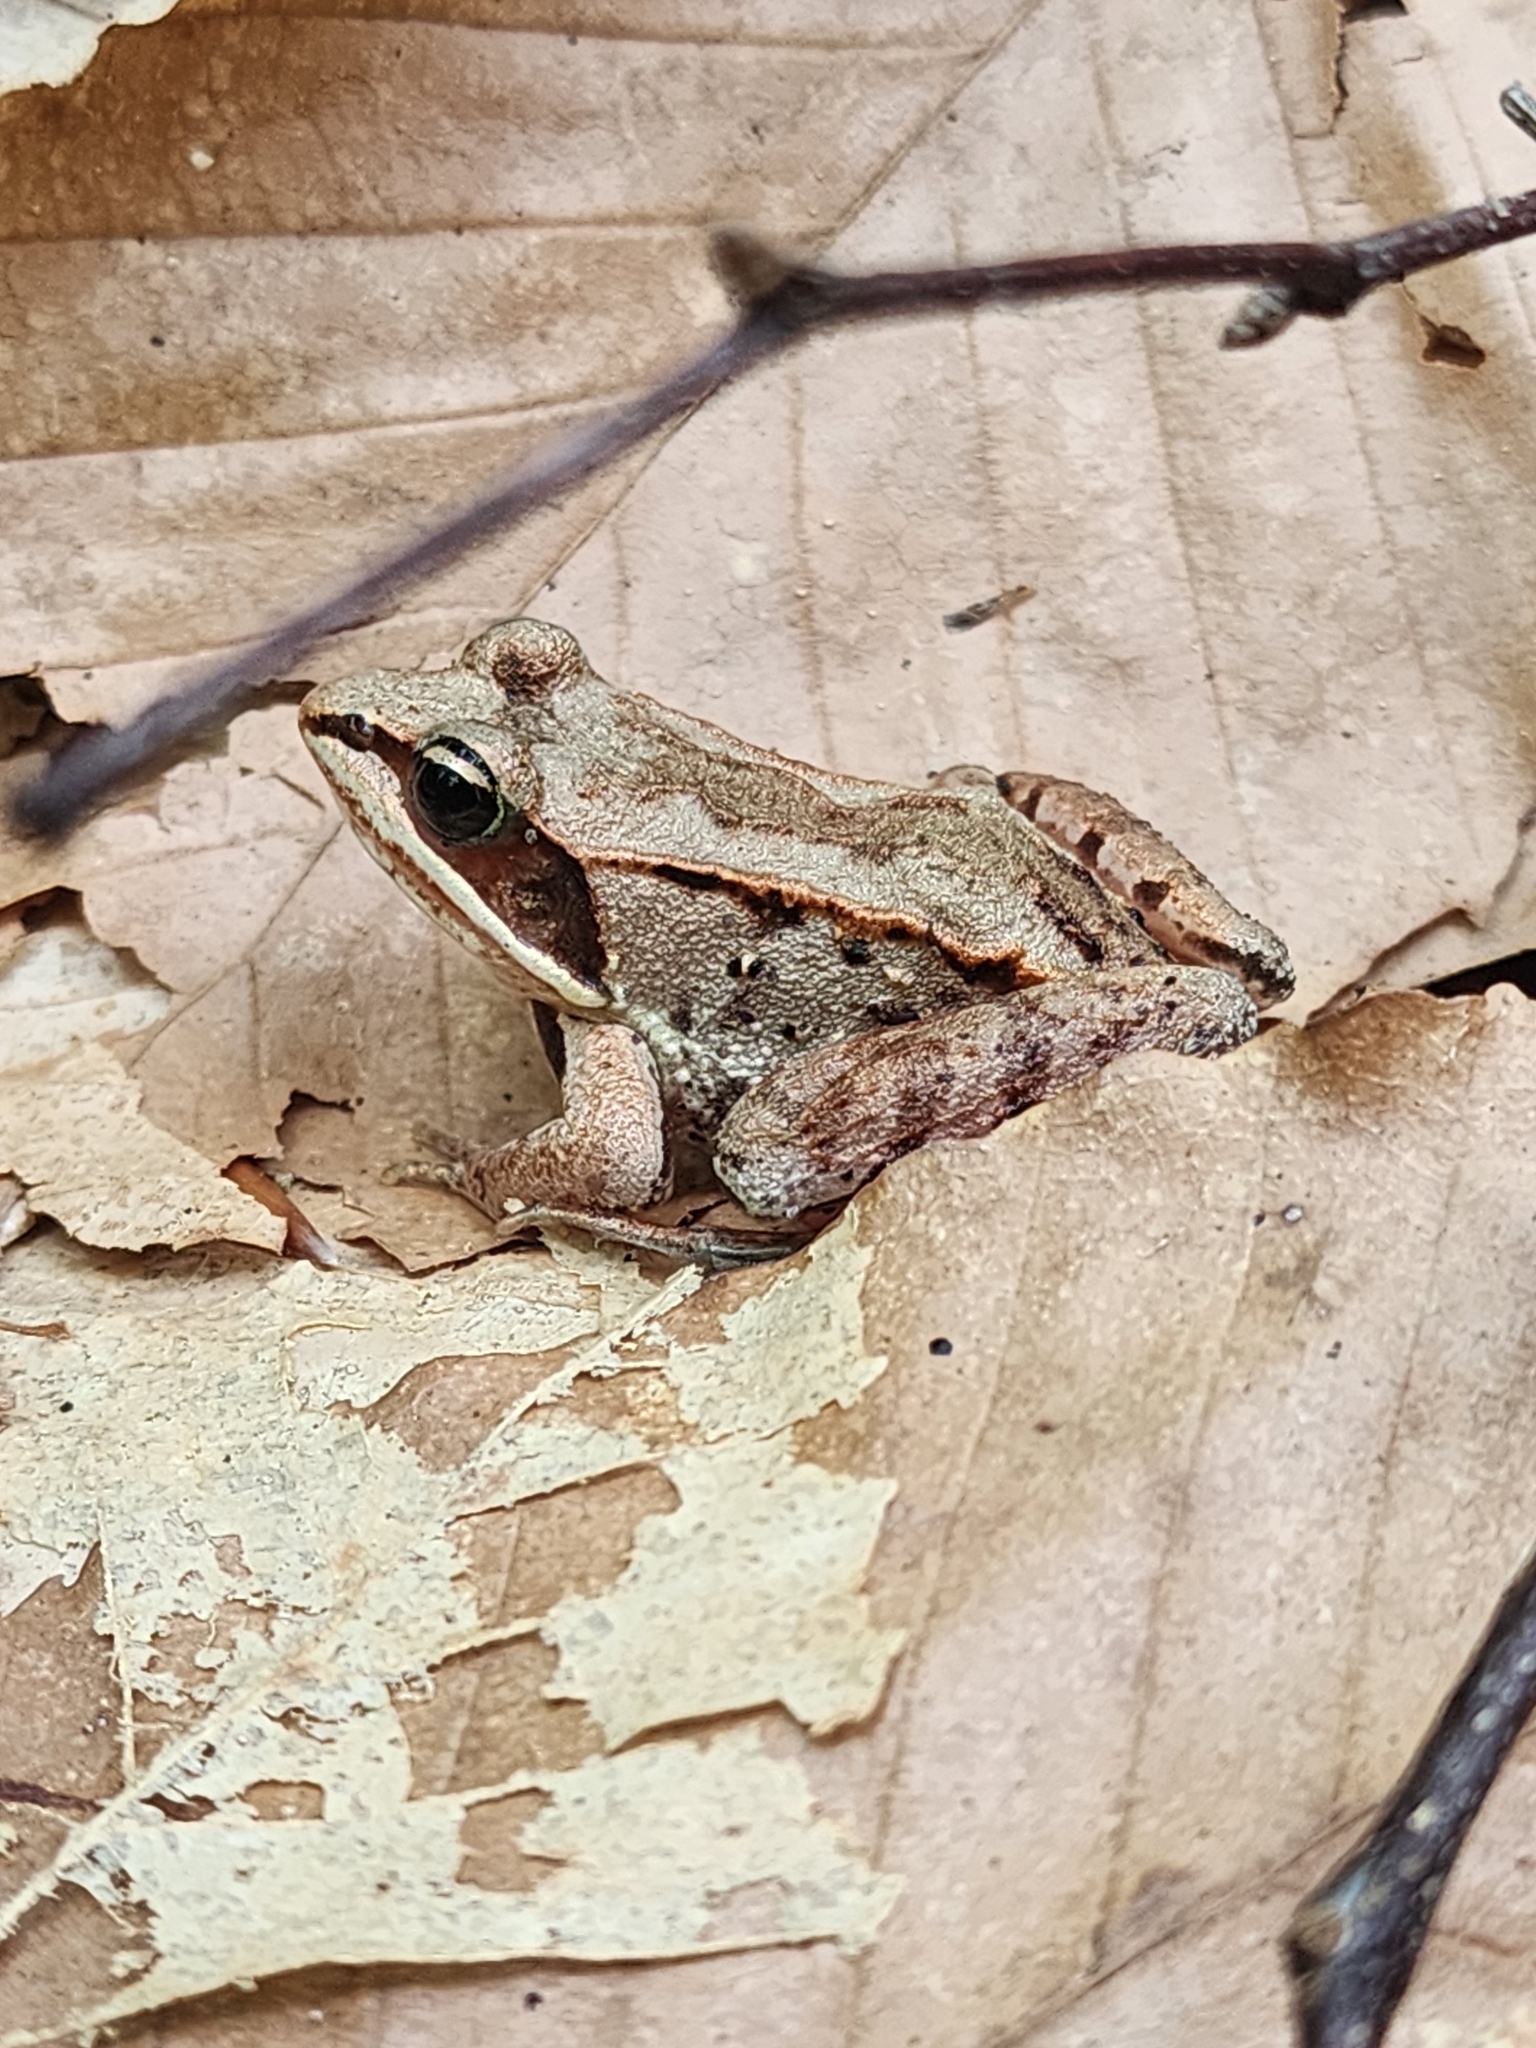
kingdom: Animalia
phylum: Chordata
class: Amphibia
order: Anura
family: Ranidae
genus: Lithobates
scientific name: Lithobates sylvaticus
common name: Wood frog
